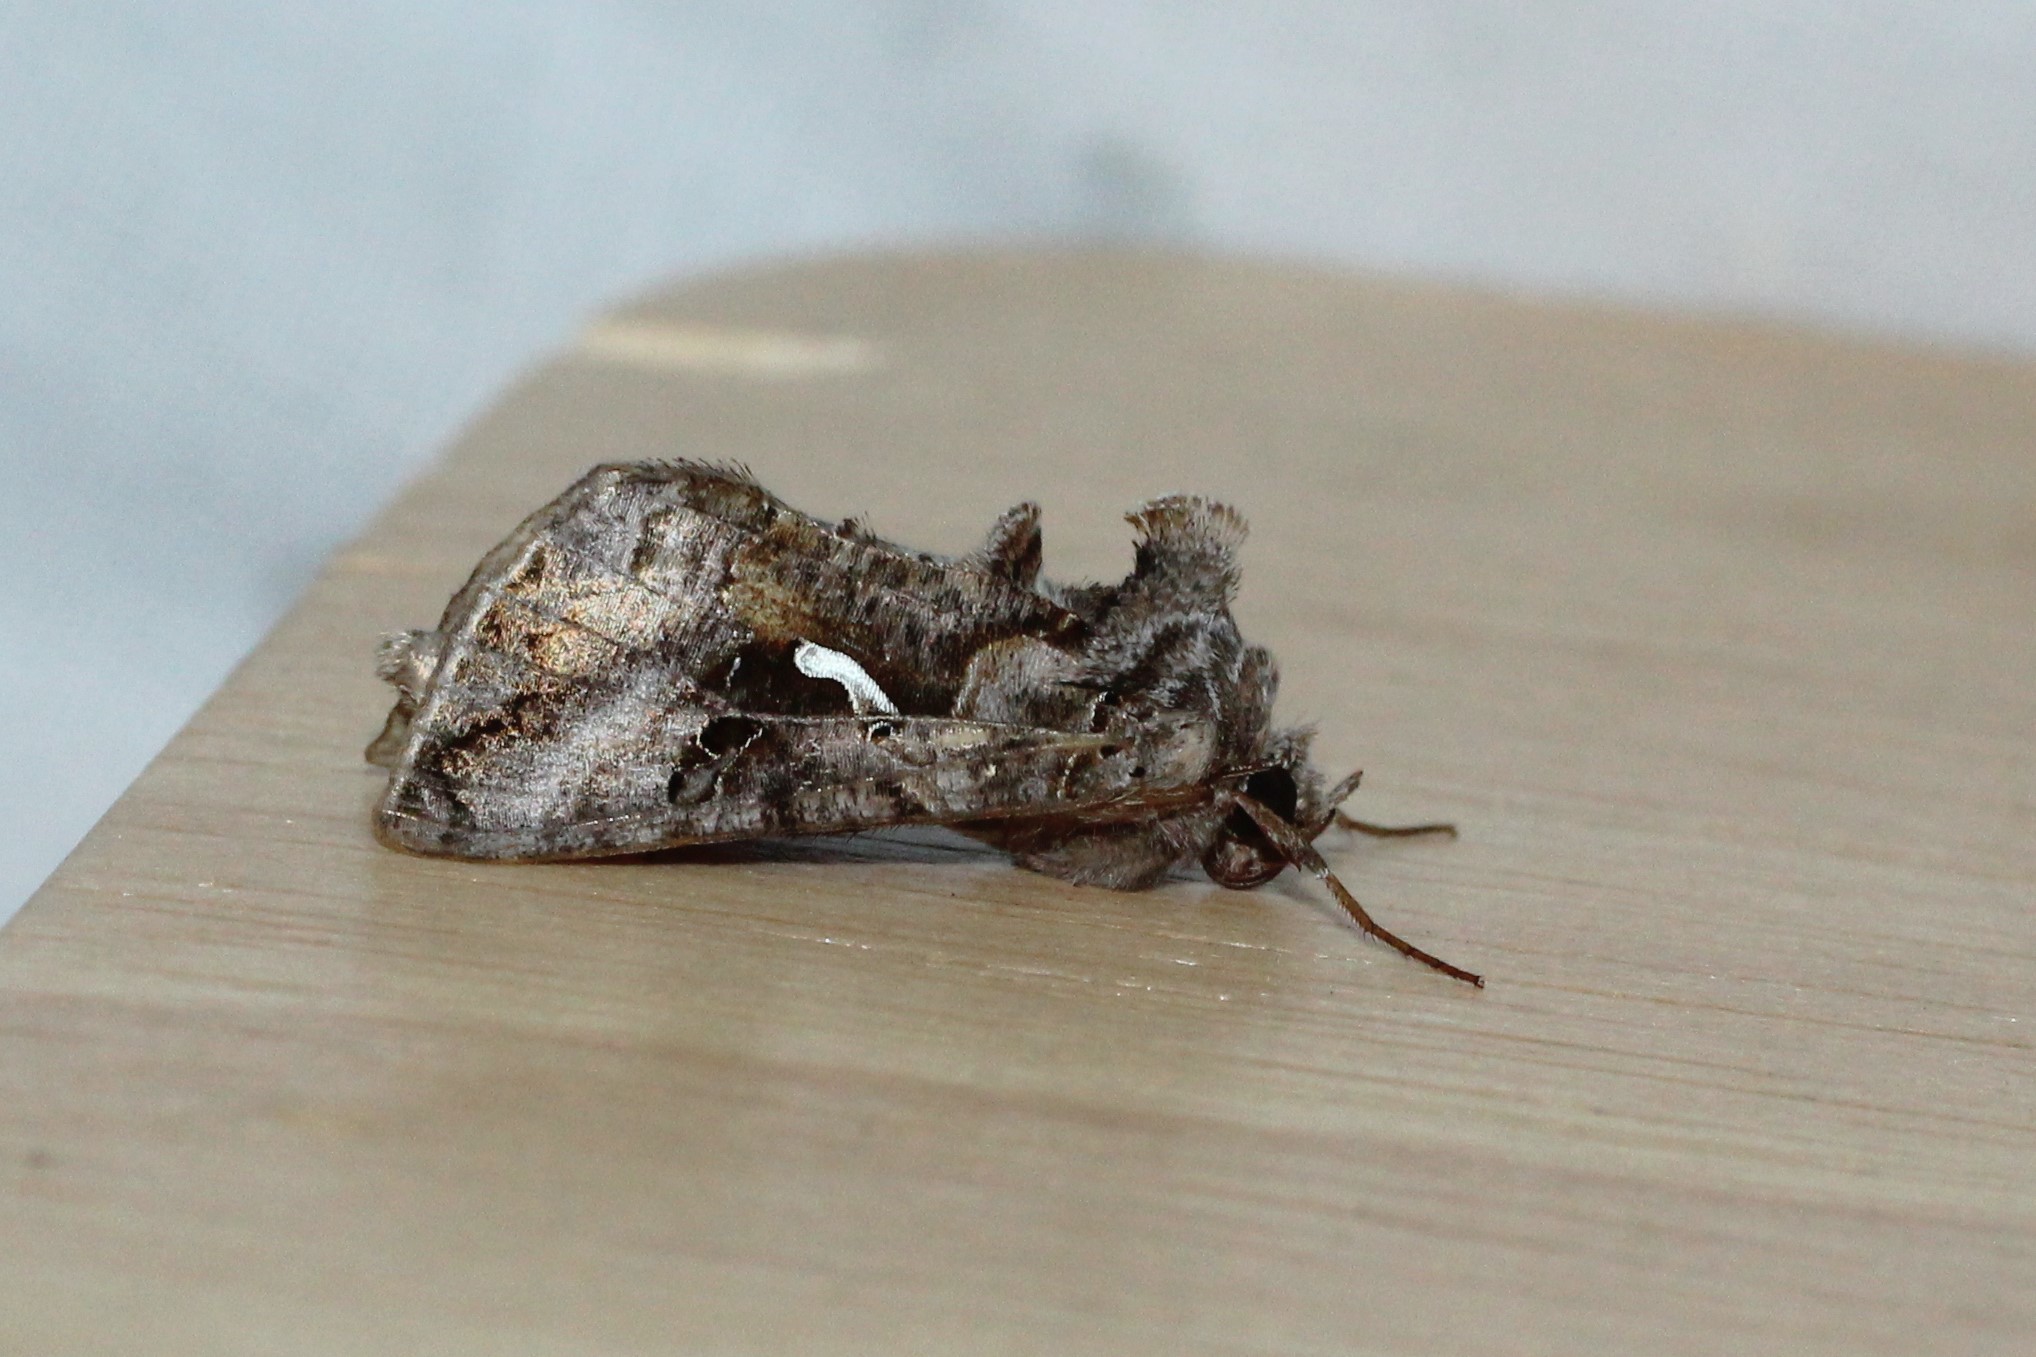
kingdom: Animalia
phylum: Arthropoda
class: Insecta
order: Lepidoptera
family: Noctuidae
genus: Autographa
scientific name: Autographa precationis
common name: Common looper moth
